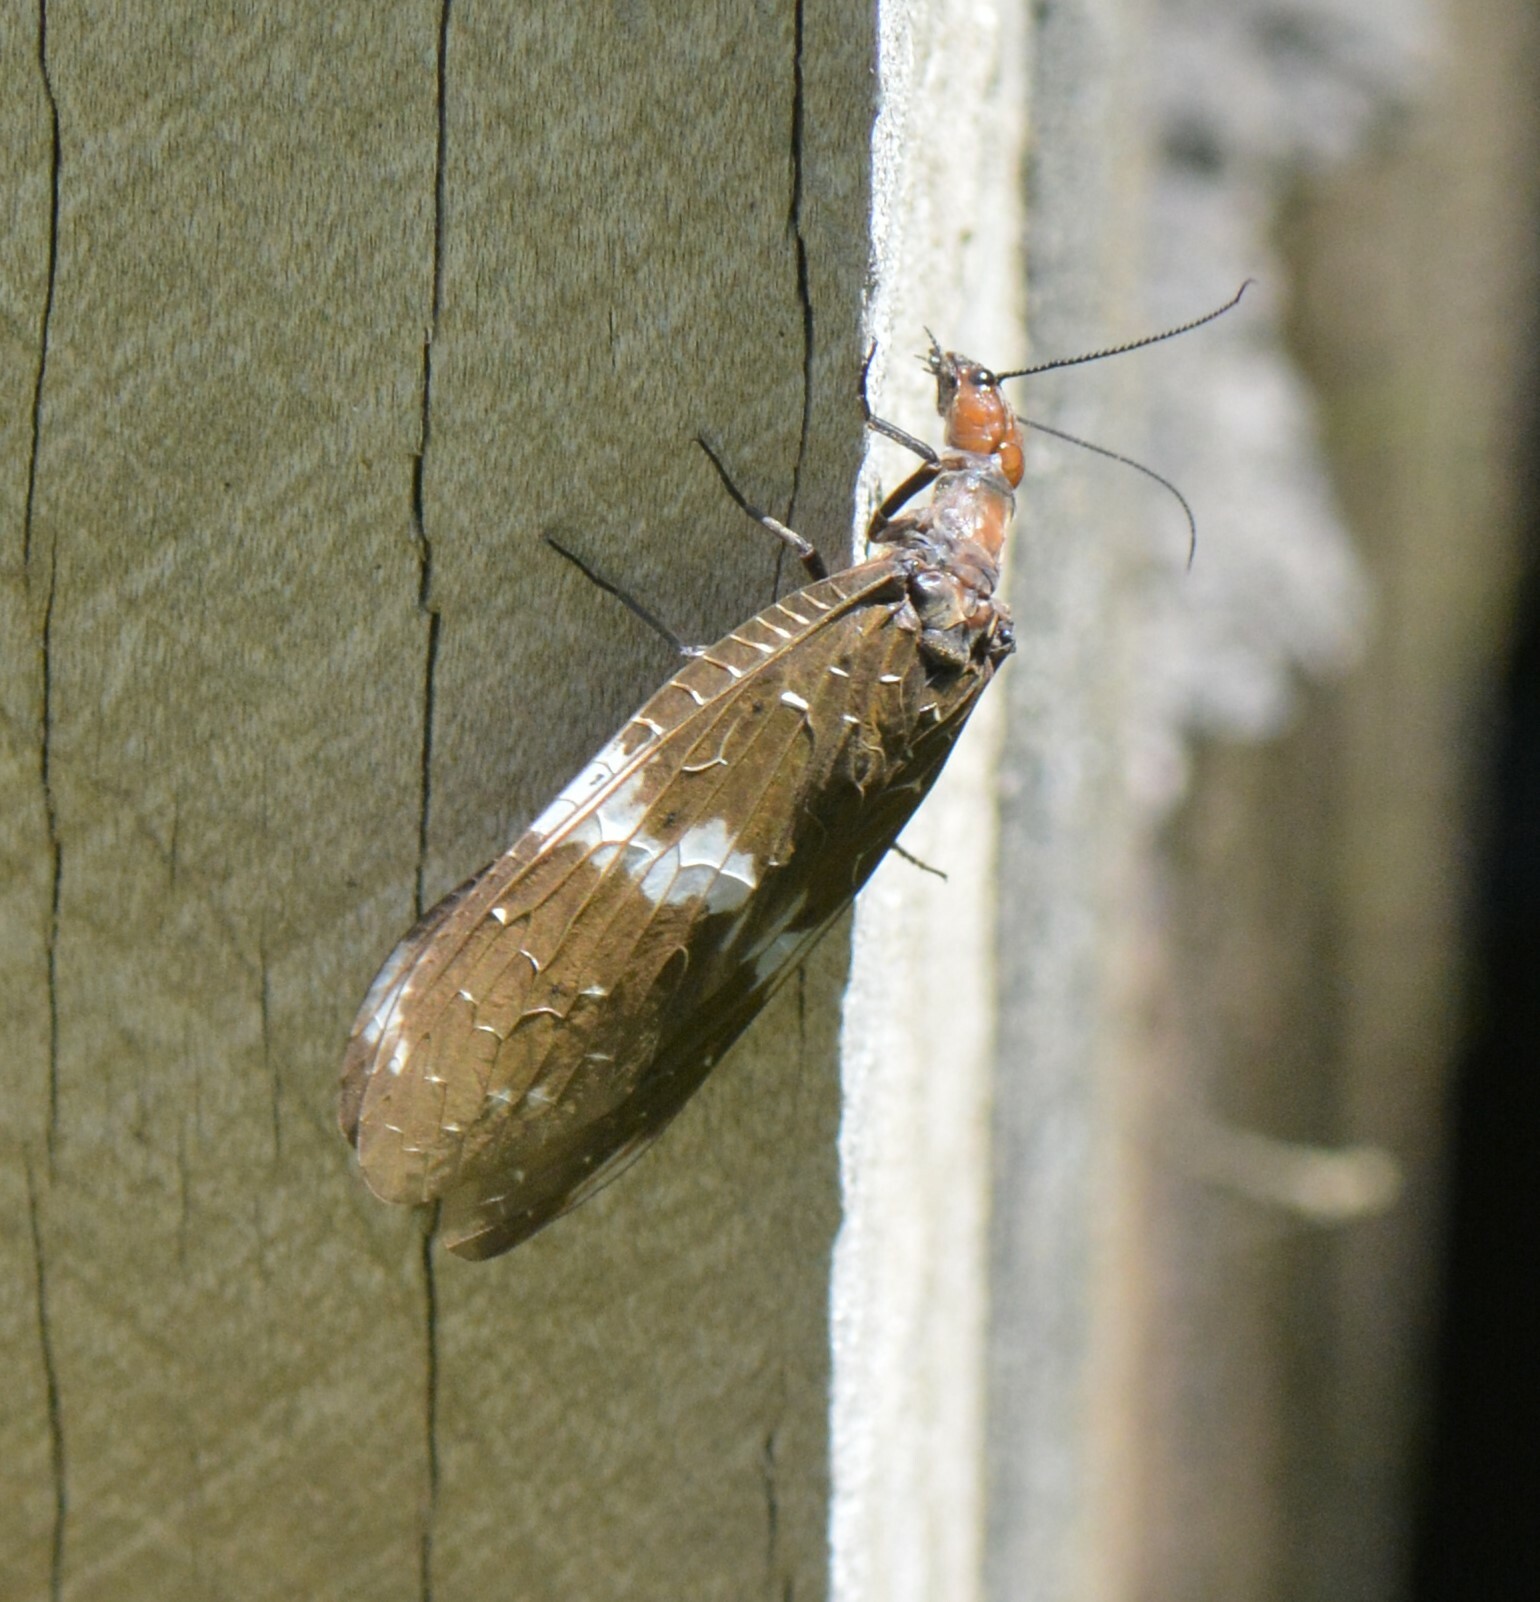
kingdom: Animalia
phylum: Arthropoda
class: Insecta
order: Megaloptera
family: Corydalidae
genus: Nigronia
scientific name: Nigronia serricornis
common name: Serrate dark fishfly
